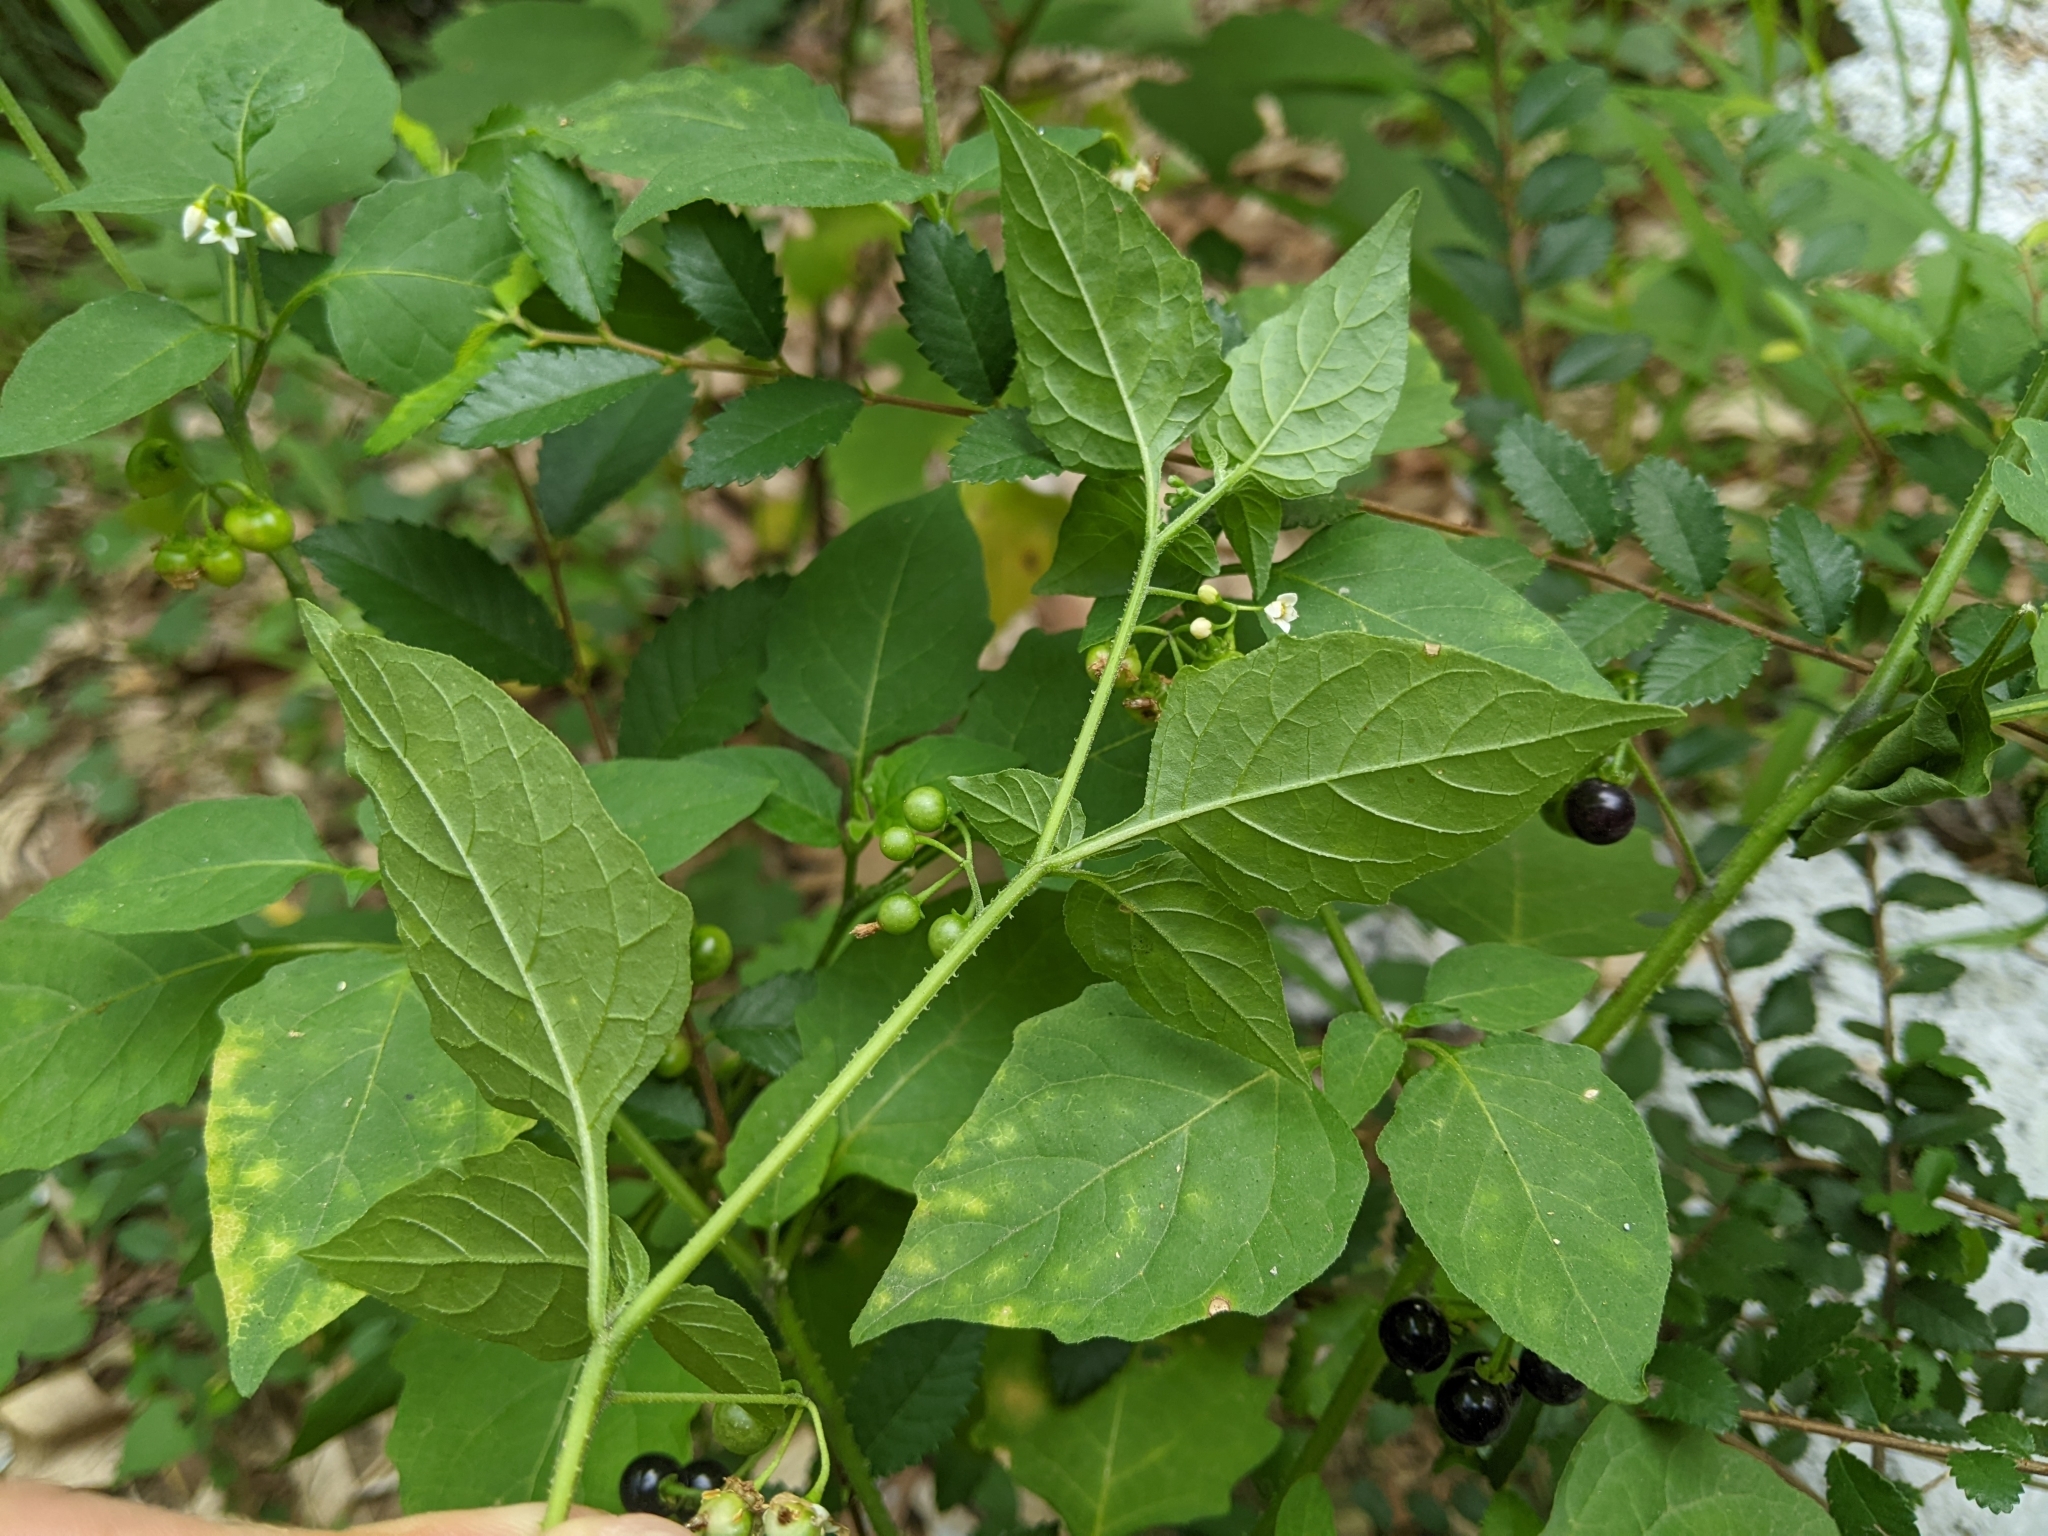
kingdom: Plantae
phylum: Tracheophyta
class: Magnoliopsida
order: Solanales
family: Solanaceae
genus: Solanum
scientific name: Solanum americanum
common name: American black nightshade
